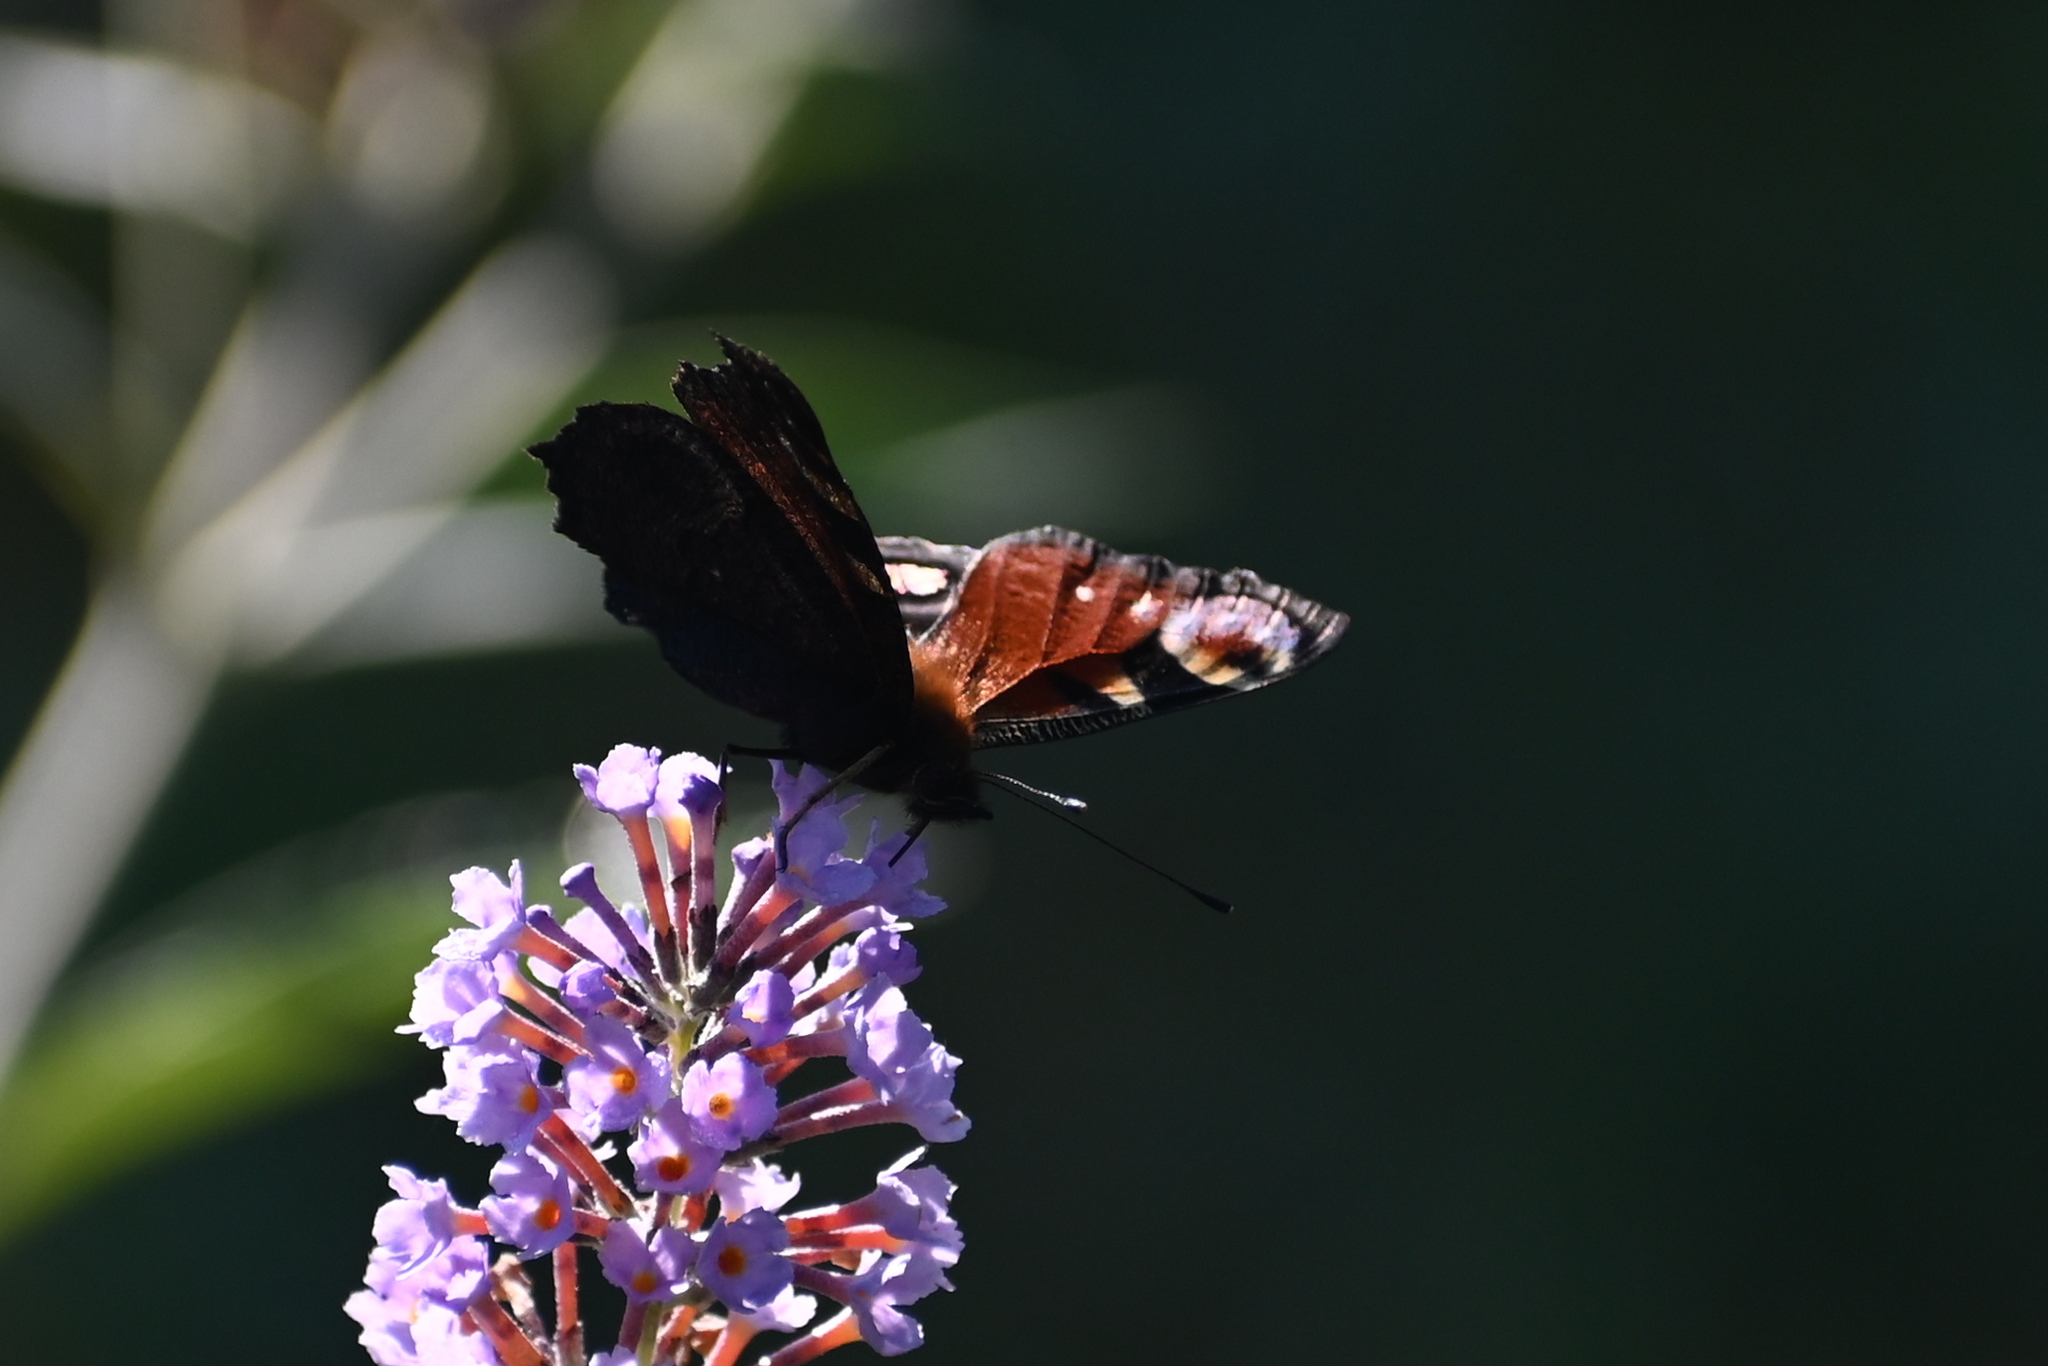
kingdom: Animalia
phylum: Arthropoda
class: Insecta
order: Lepidoptera
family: Nymphalidae
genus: Aglais
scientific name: Aglais io
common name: Peacock
